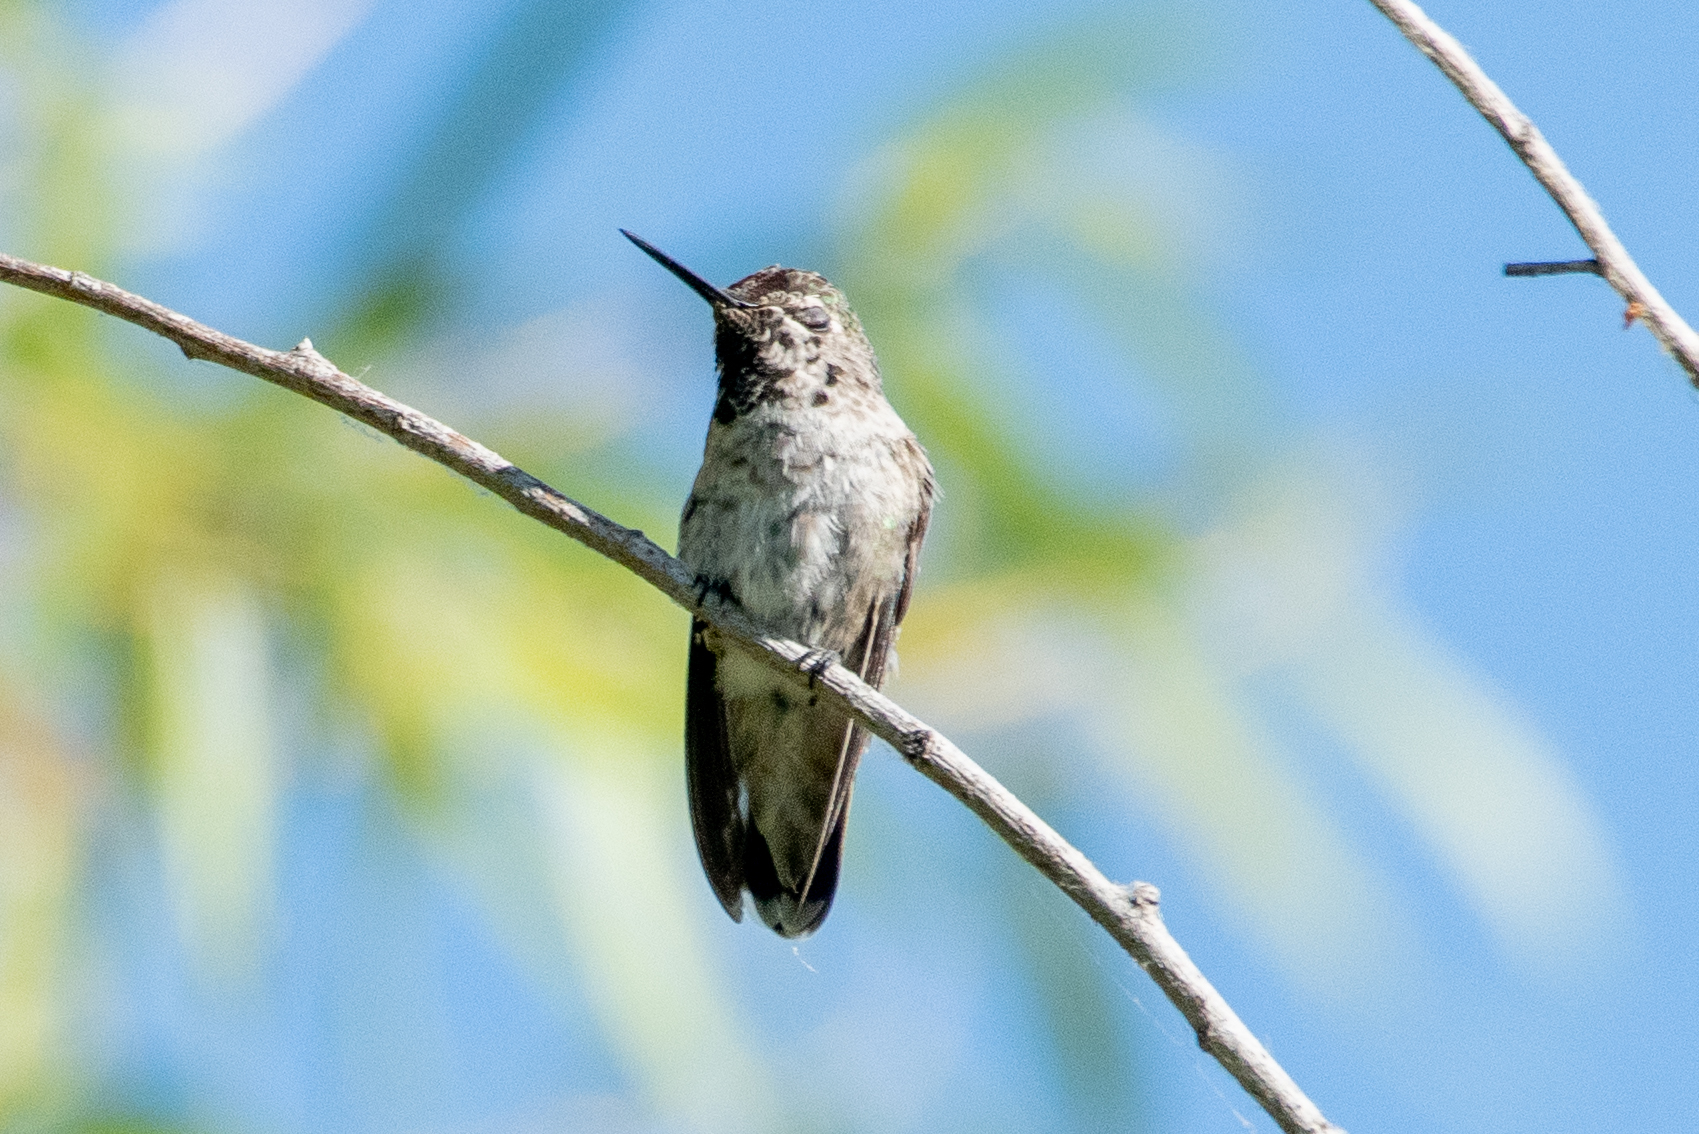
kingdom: Animalia
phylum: Chordata
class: Aves
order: Apodiformes
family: Trochilidae
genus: Calypte
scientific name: Calypte anna
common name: Anna's hummingbird
